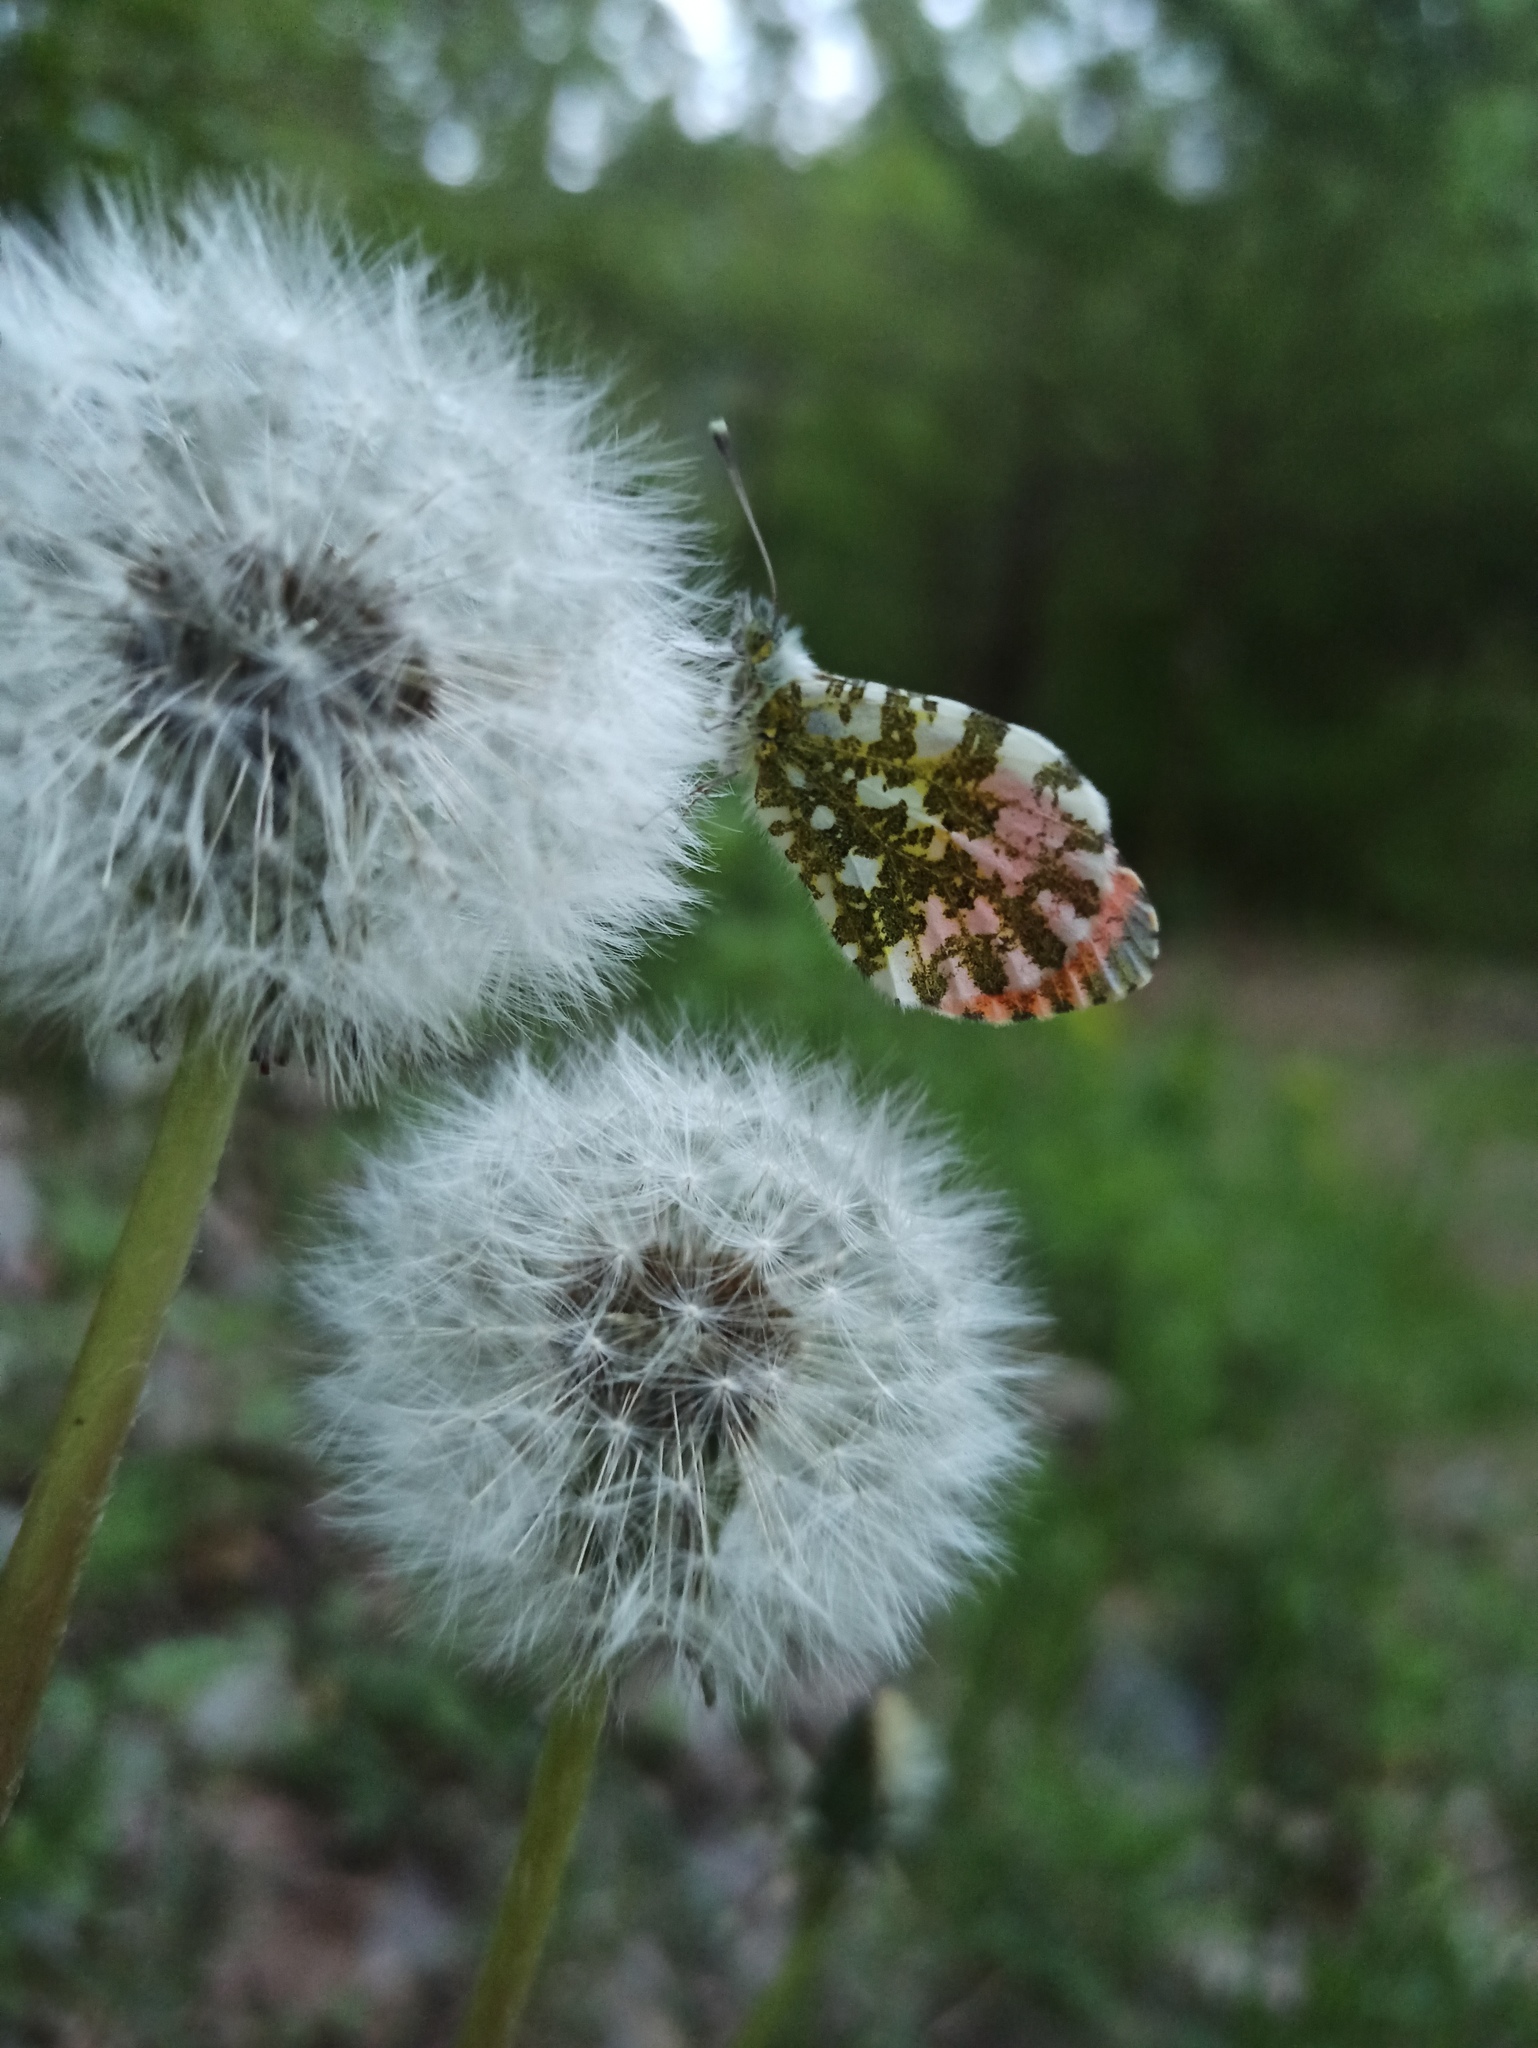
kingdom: Animalia
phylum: Arthropoda
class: Insecta
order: Lepidoptera
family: Pieridae
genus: Anthocharis
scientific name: Anthocharis cardamines
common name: Orange-tip
